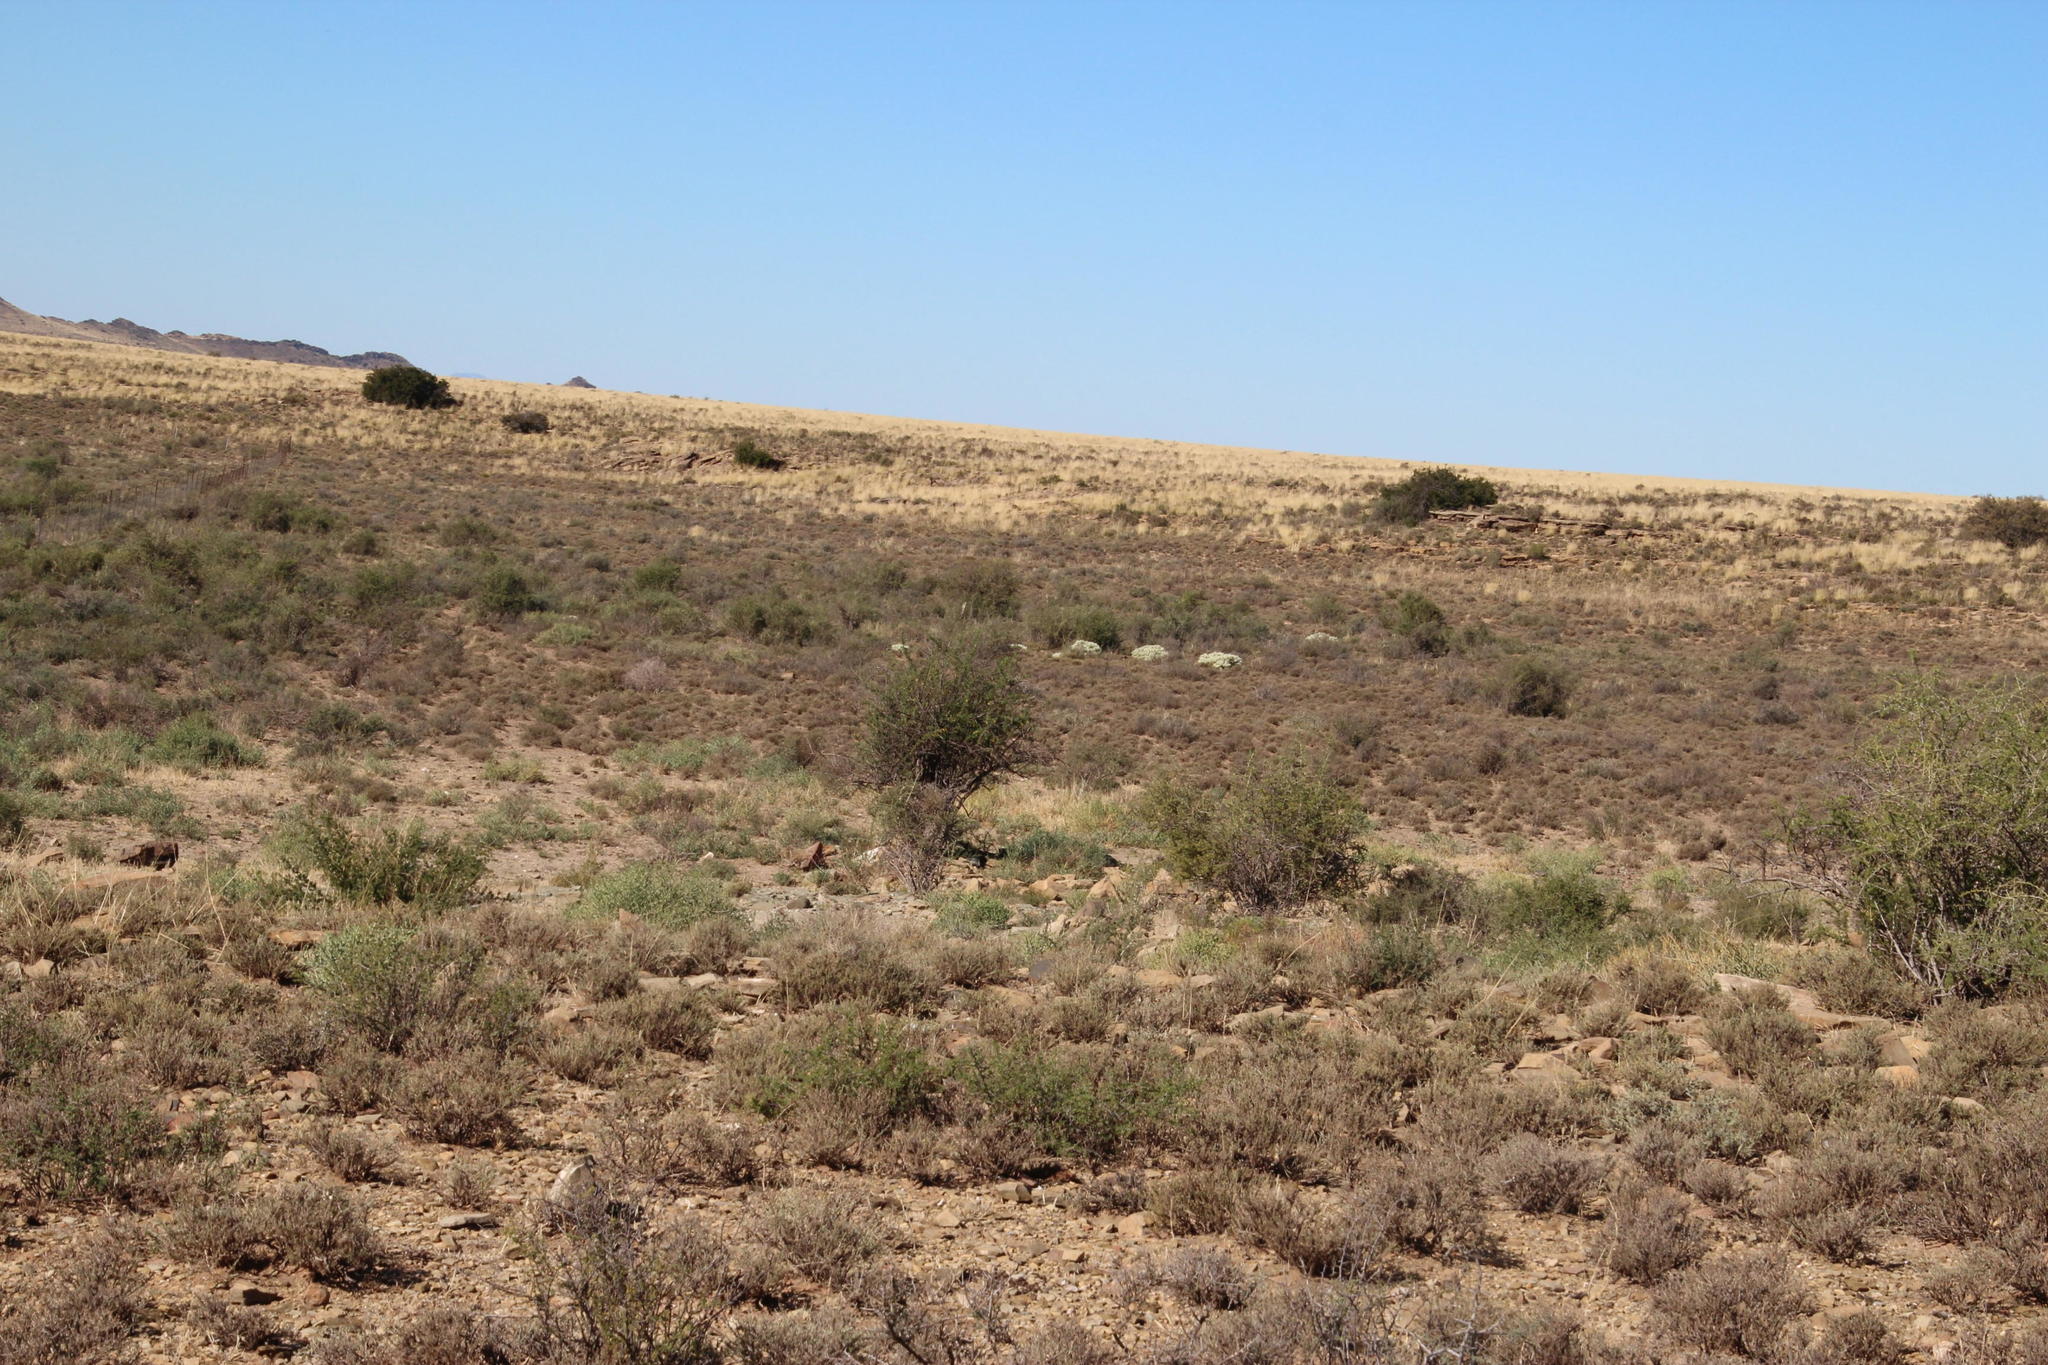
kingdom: Plantae
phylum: Tracheophyta
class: Magnoliopsida
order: Caryophyllales
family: Cactaceae
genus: Cylindropuntia
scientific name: Cylindropuntia imbricata
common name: Candelabrum cactus
